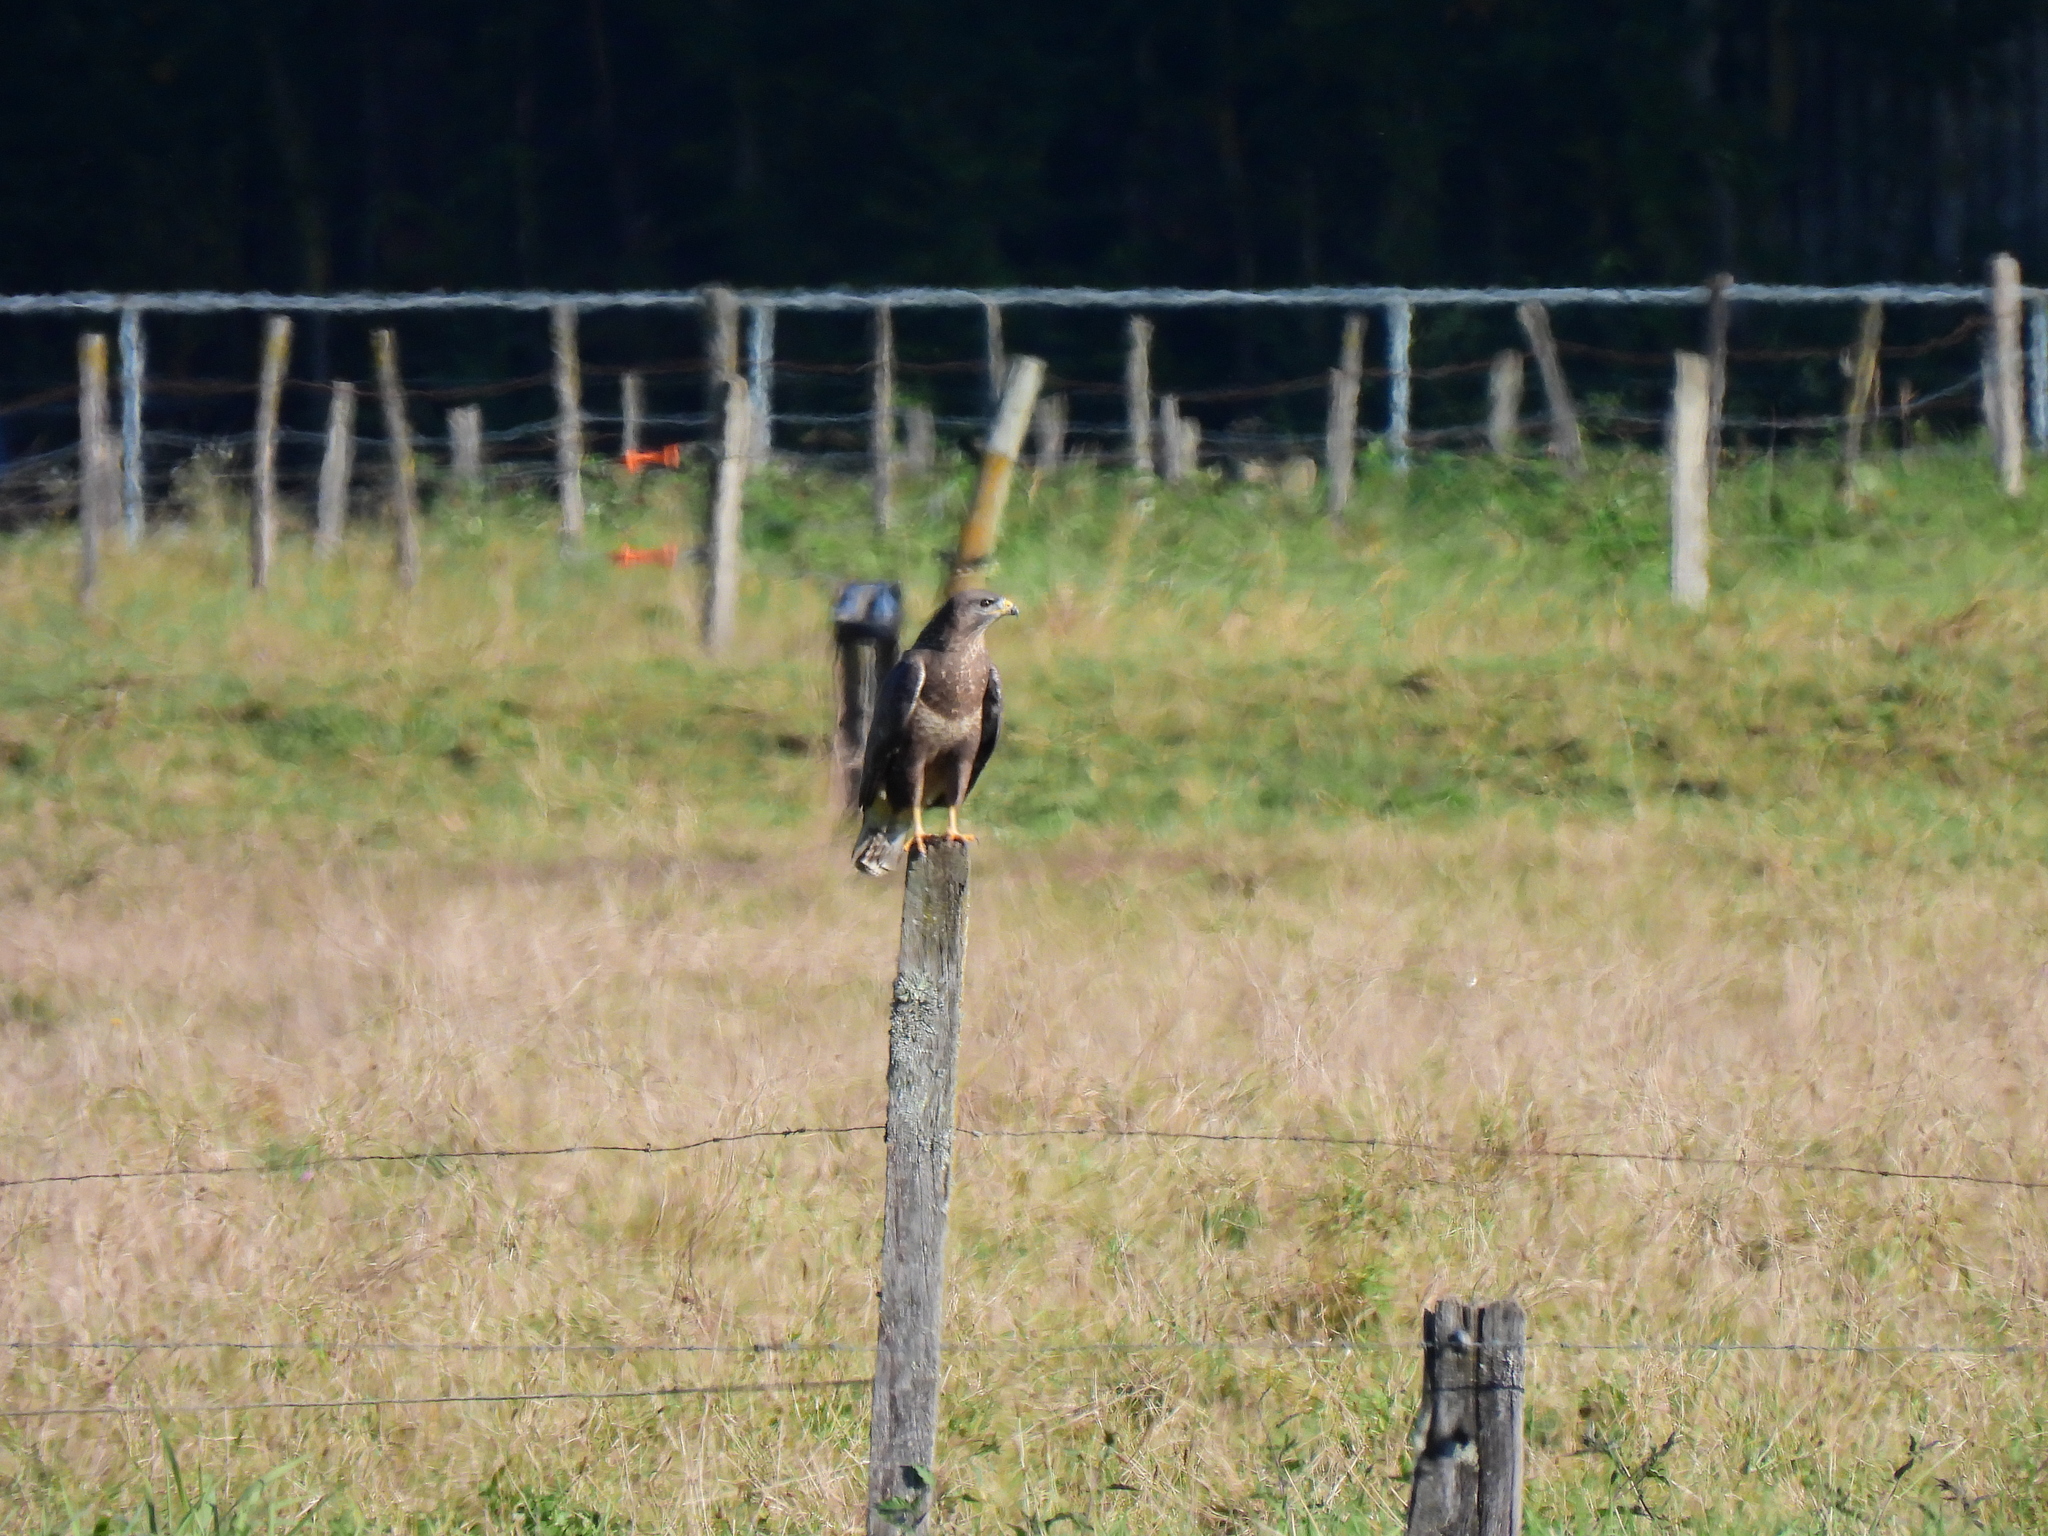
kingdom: Animalia
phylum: Chordata
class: Aves
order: Accipitriformes
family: Accipitridae
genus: Buteo
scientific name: Buteo buteo
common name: Common buzzard
